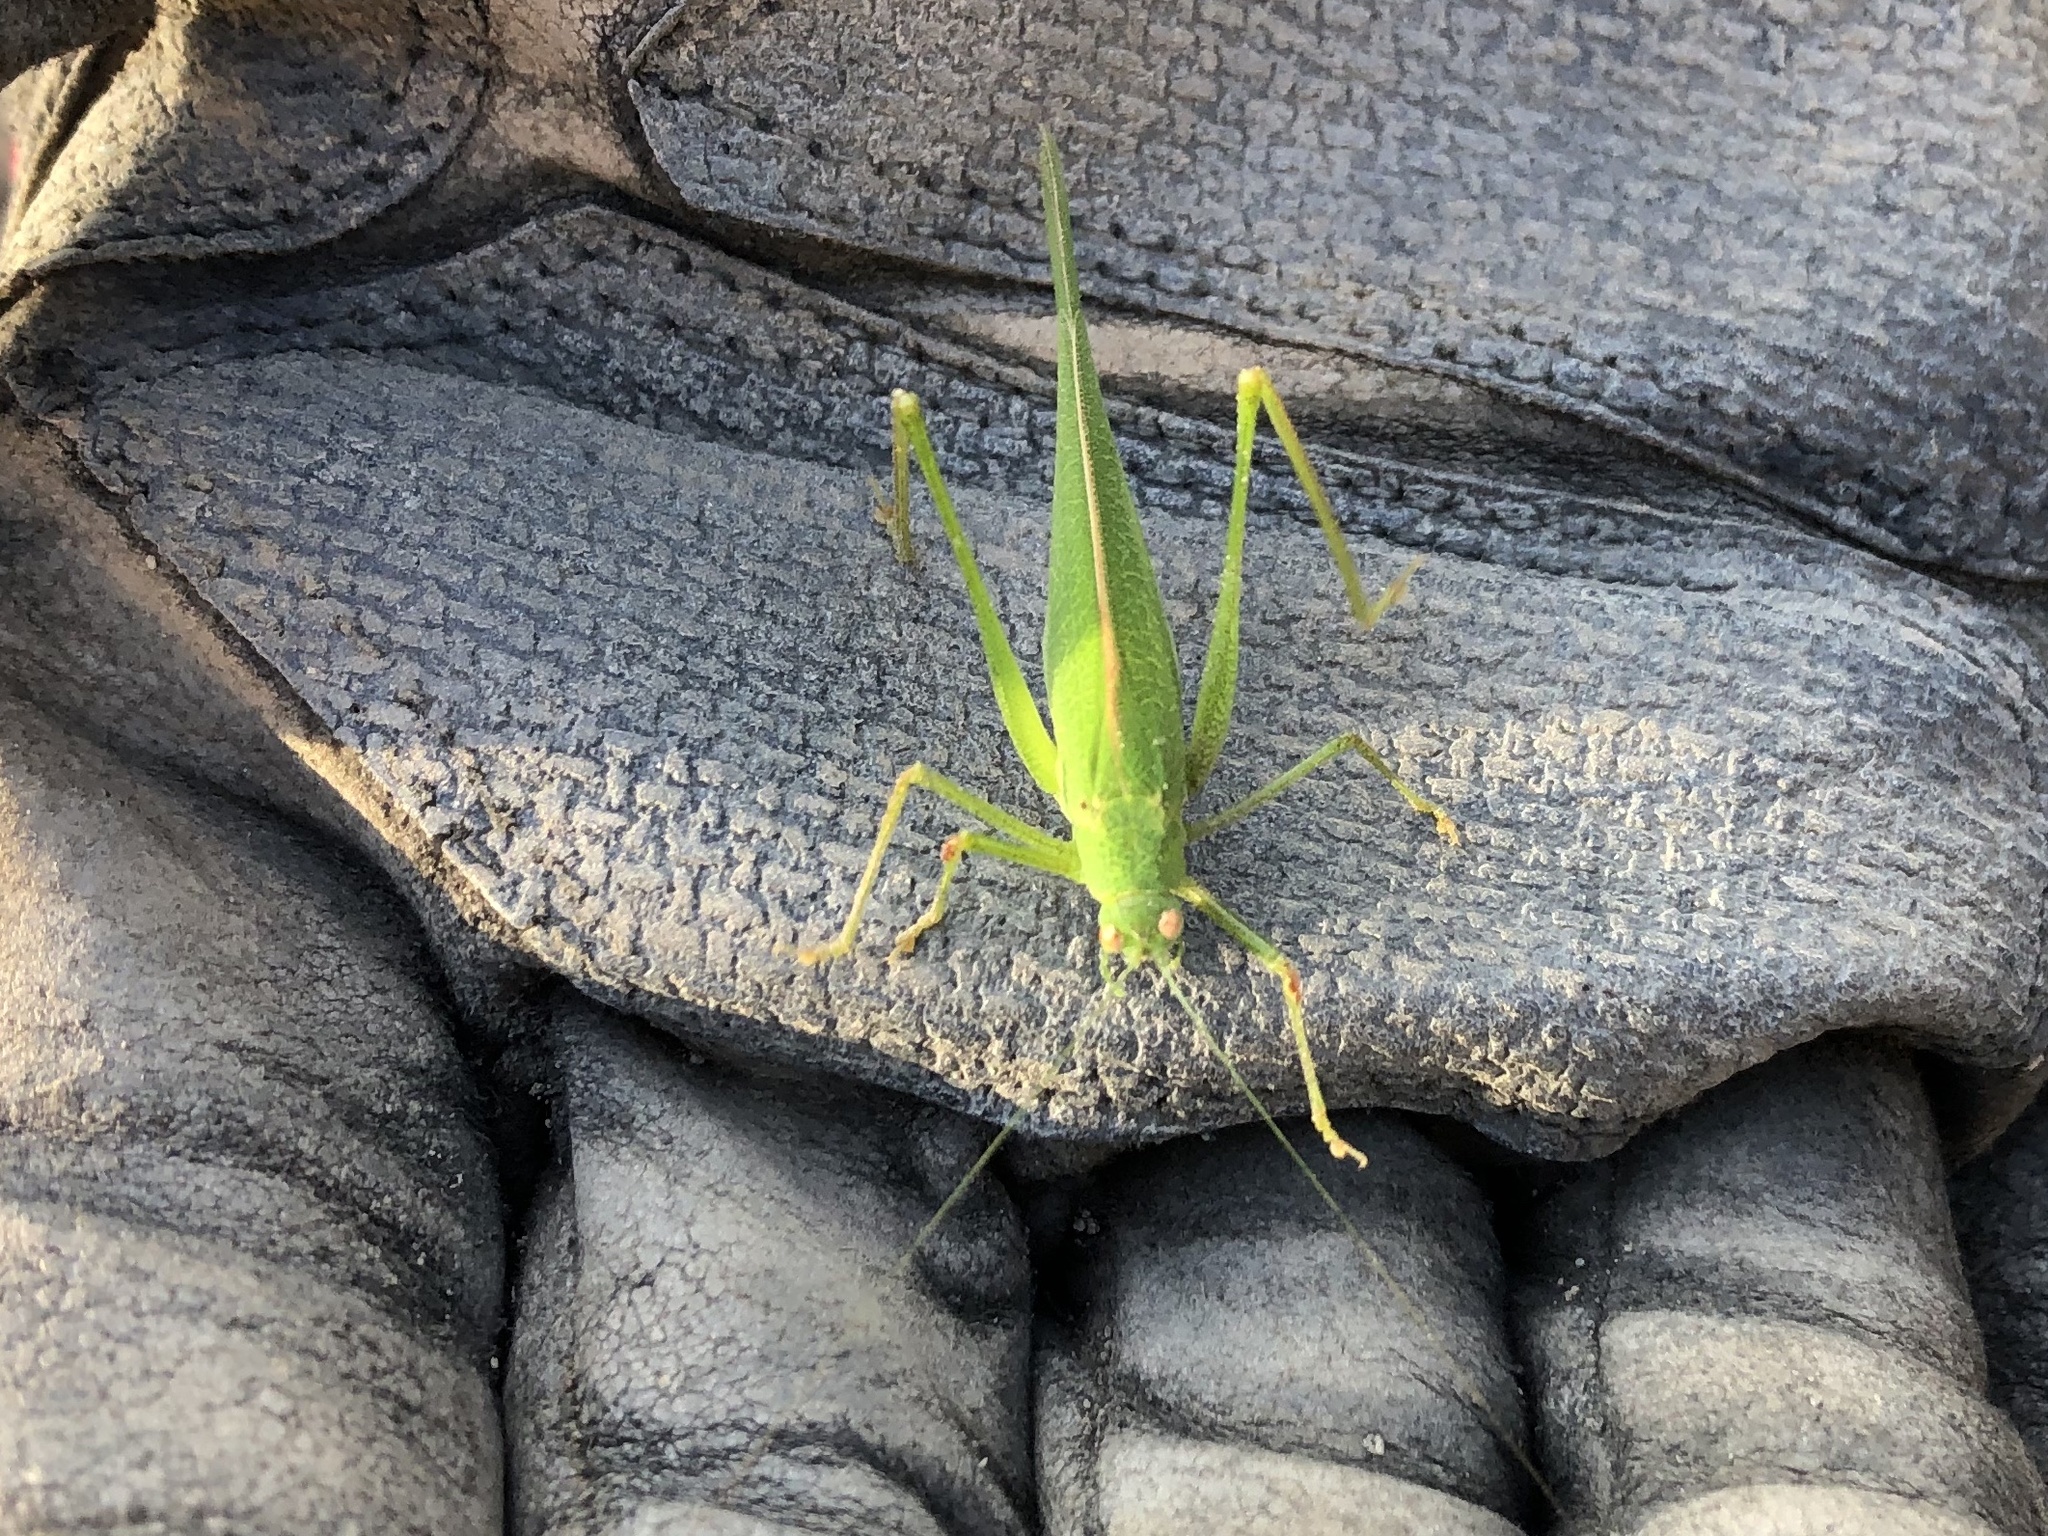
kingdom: Animalia
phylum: Arthropoda
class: Insecta
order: Orthoptera
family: Tettigoniidae
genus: Phaneroptera
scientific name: Phaneroptera nana
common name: Southern sickle bush-cricket
